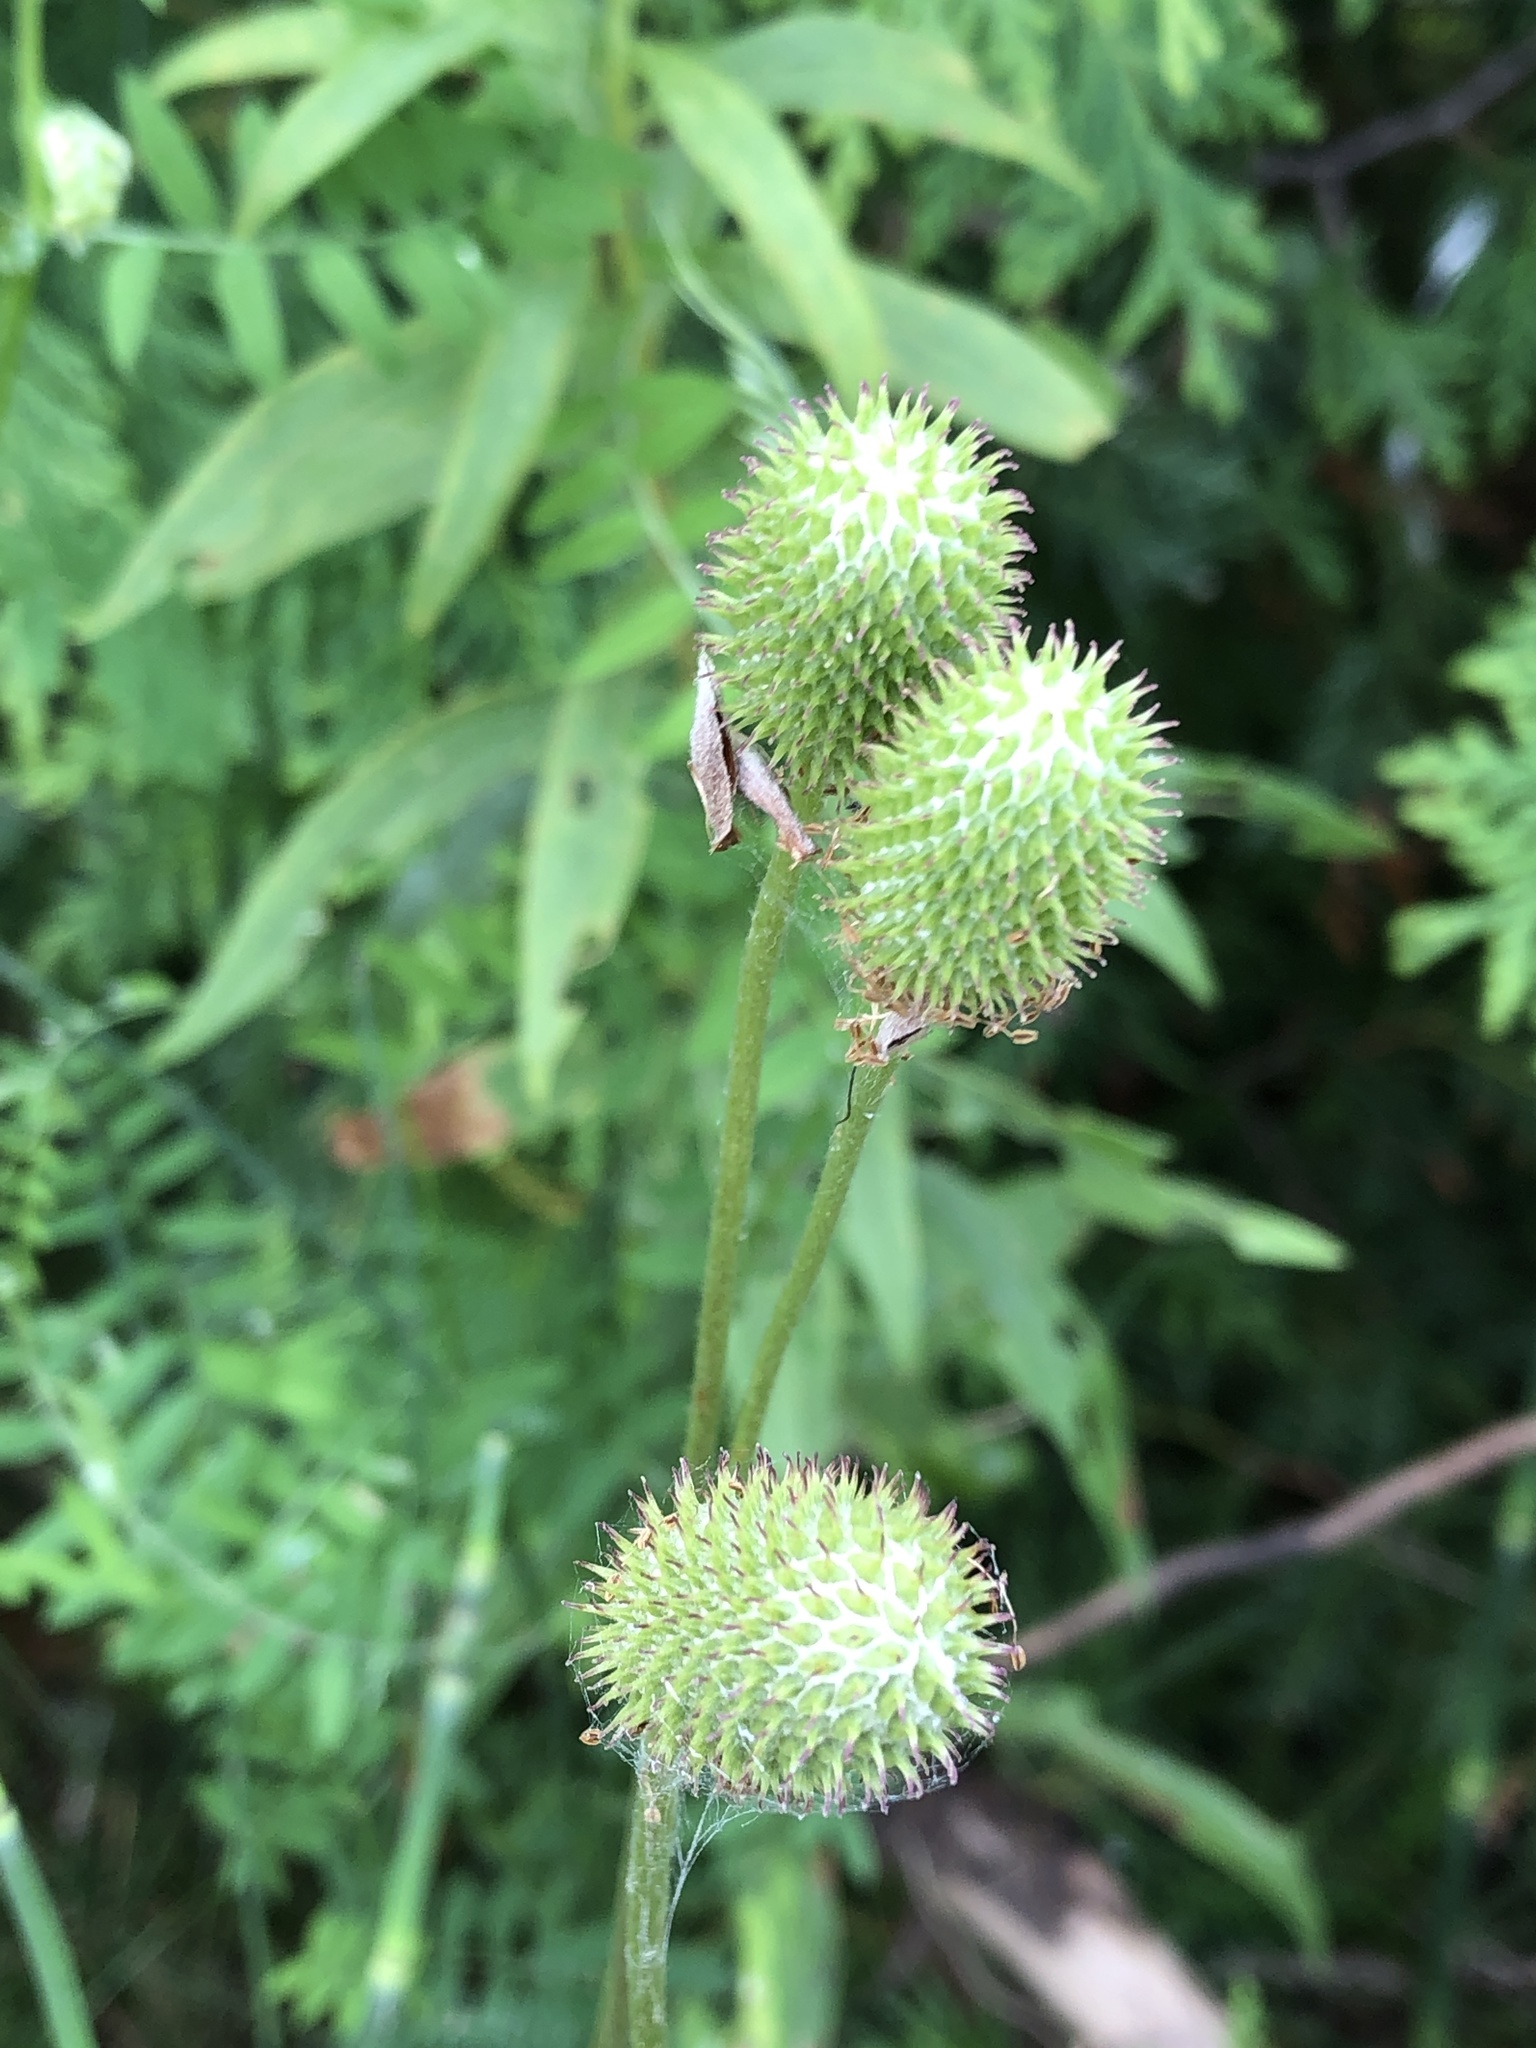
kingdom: Plantae
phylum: Tracheophyta
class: Magnoliopsida
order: Ranunculales
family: Ranunculaceae
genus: Anemone
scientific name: Anemone virginiana
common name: Tall anemone
